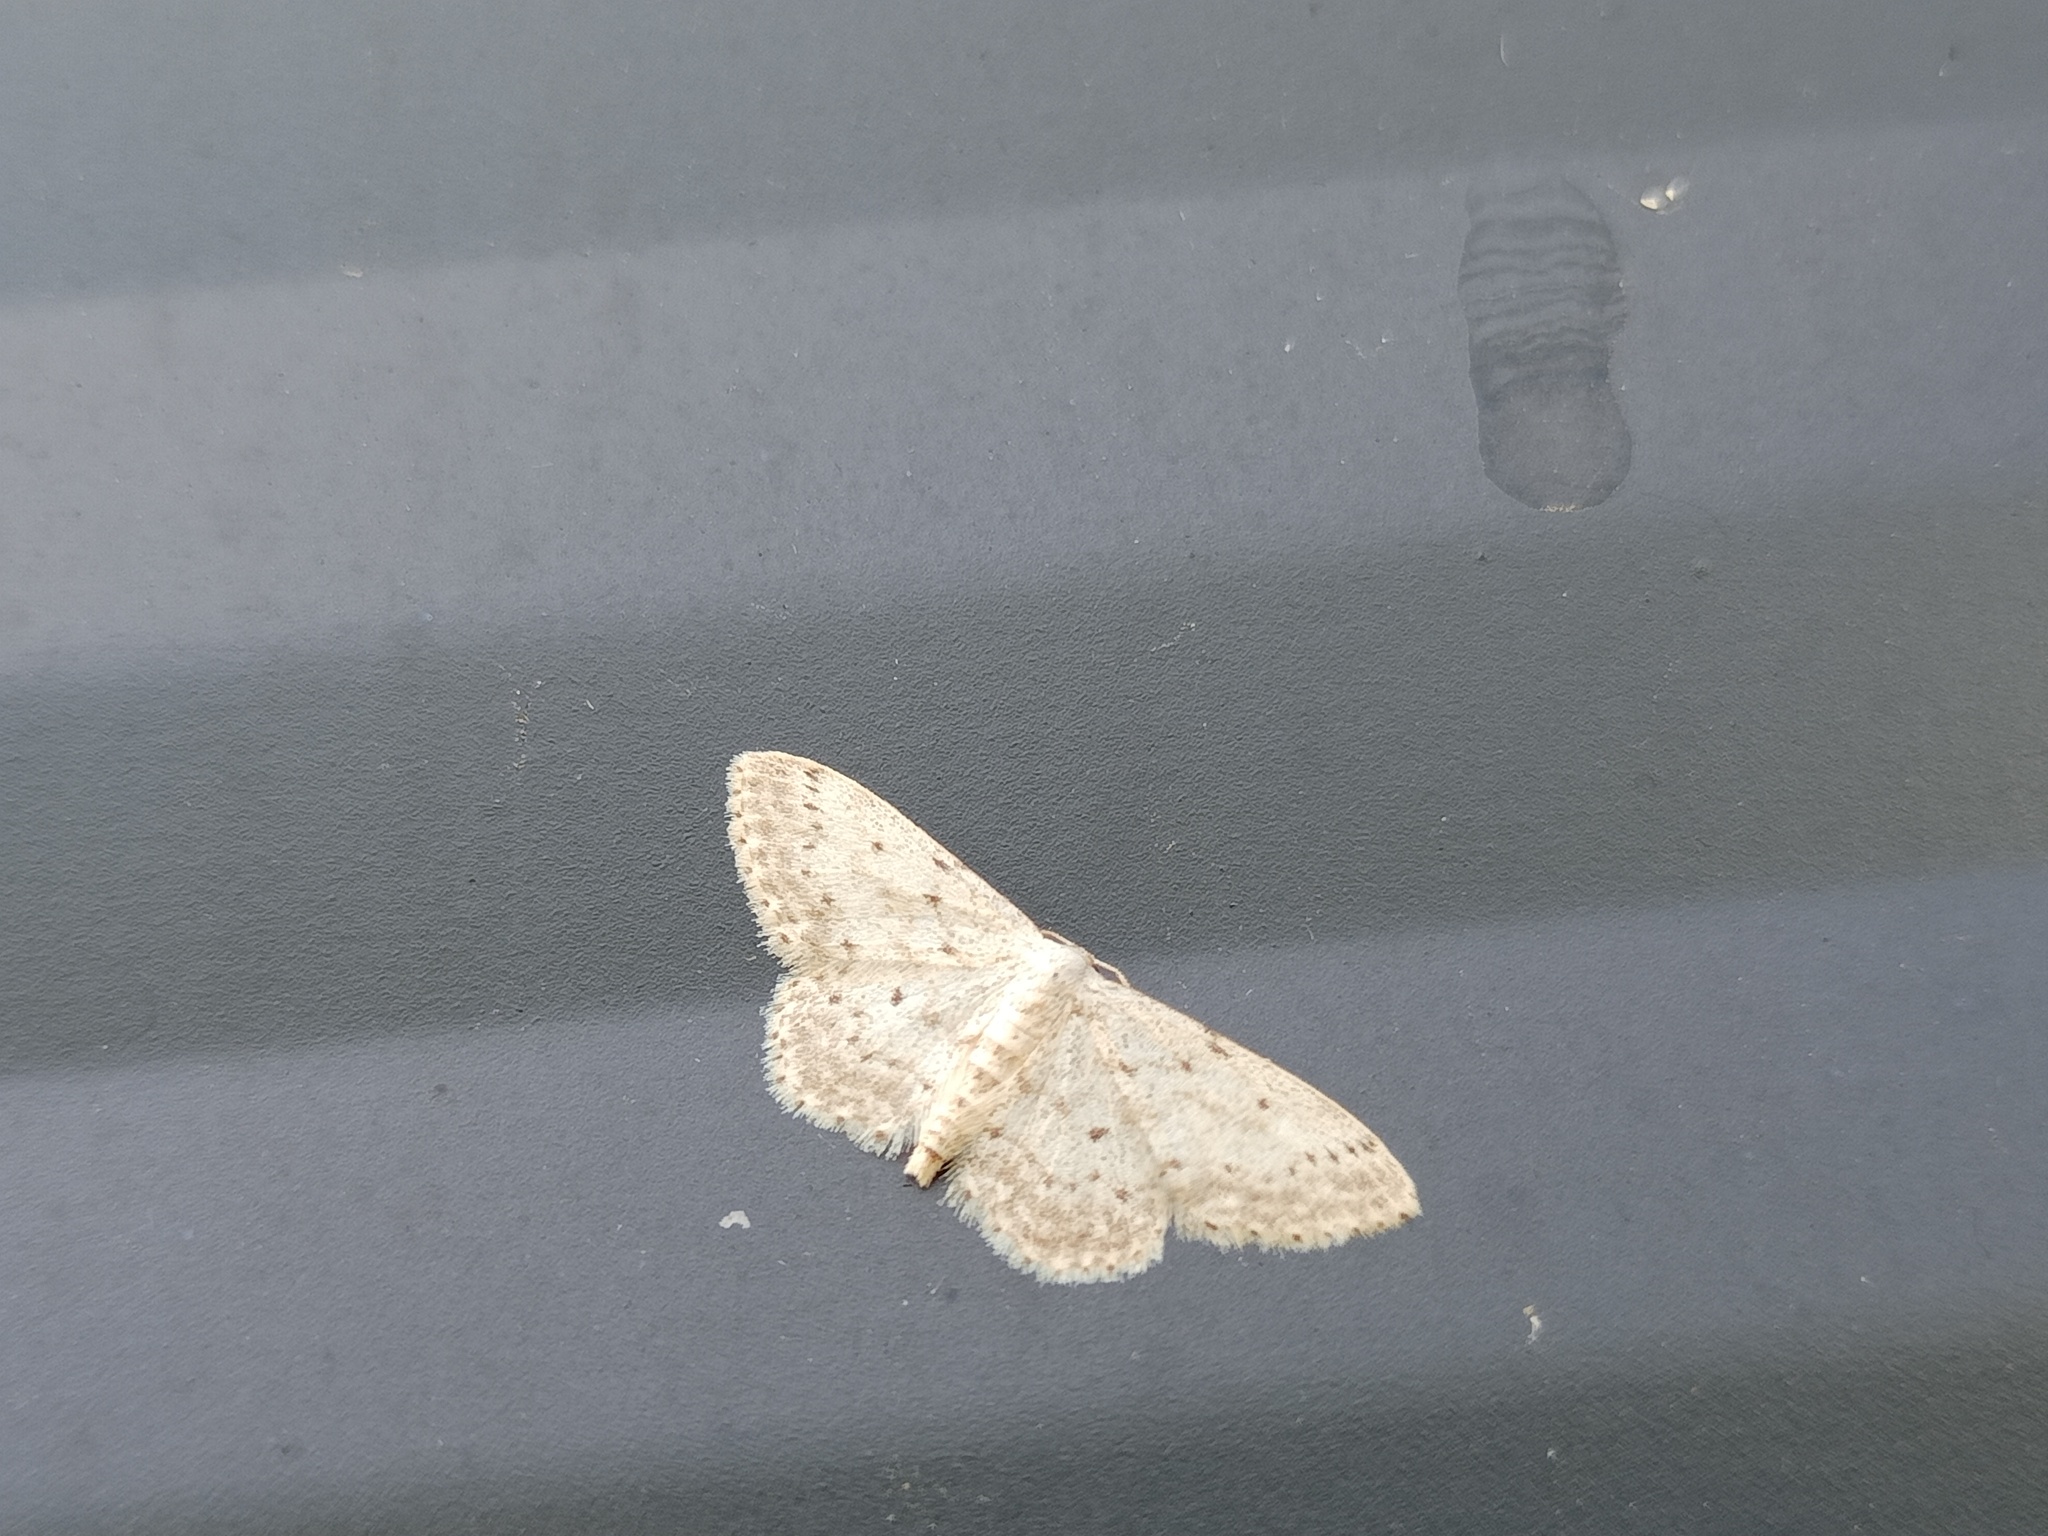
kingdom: Animalia
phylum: Arthropoda
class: Insecta
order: Lepidoptera
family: Geometridae
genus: Idaea
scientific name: Idaea seriata
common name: Small dusty wave
